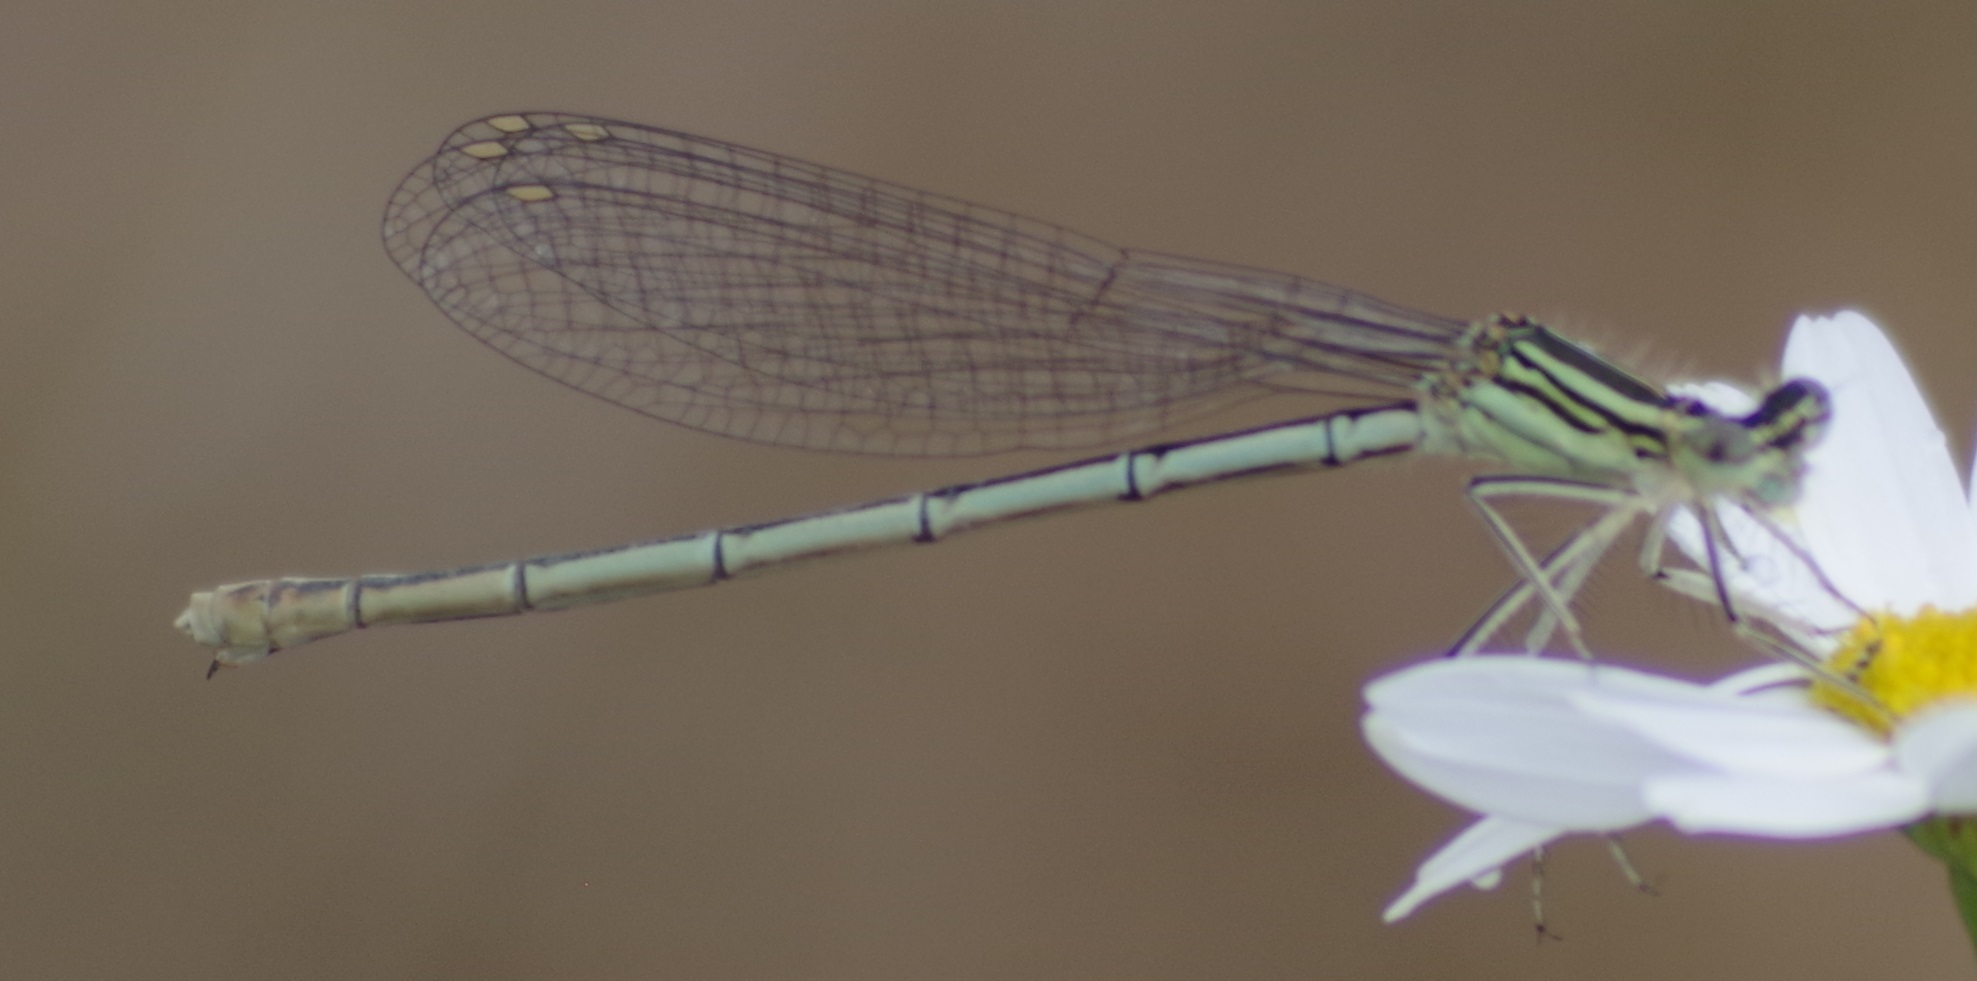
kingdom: Animalia
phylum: Arthropoda
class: Insecta
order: Odonata
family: Platycnemididae
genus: Platycnemis
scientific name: Platycnemis pennipes
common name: White-legged damselfly
